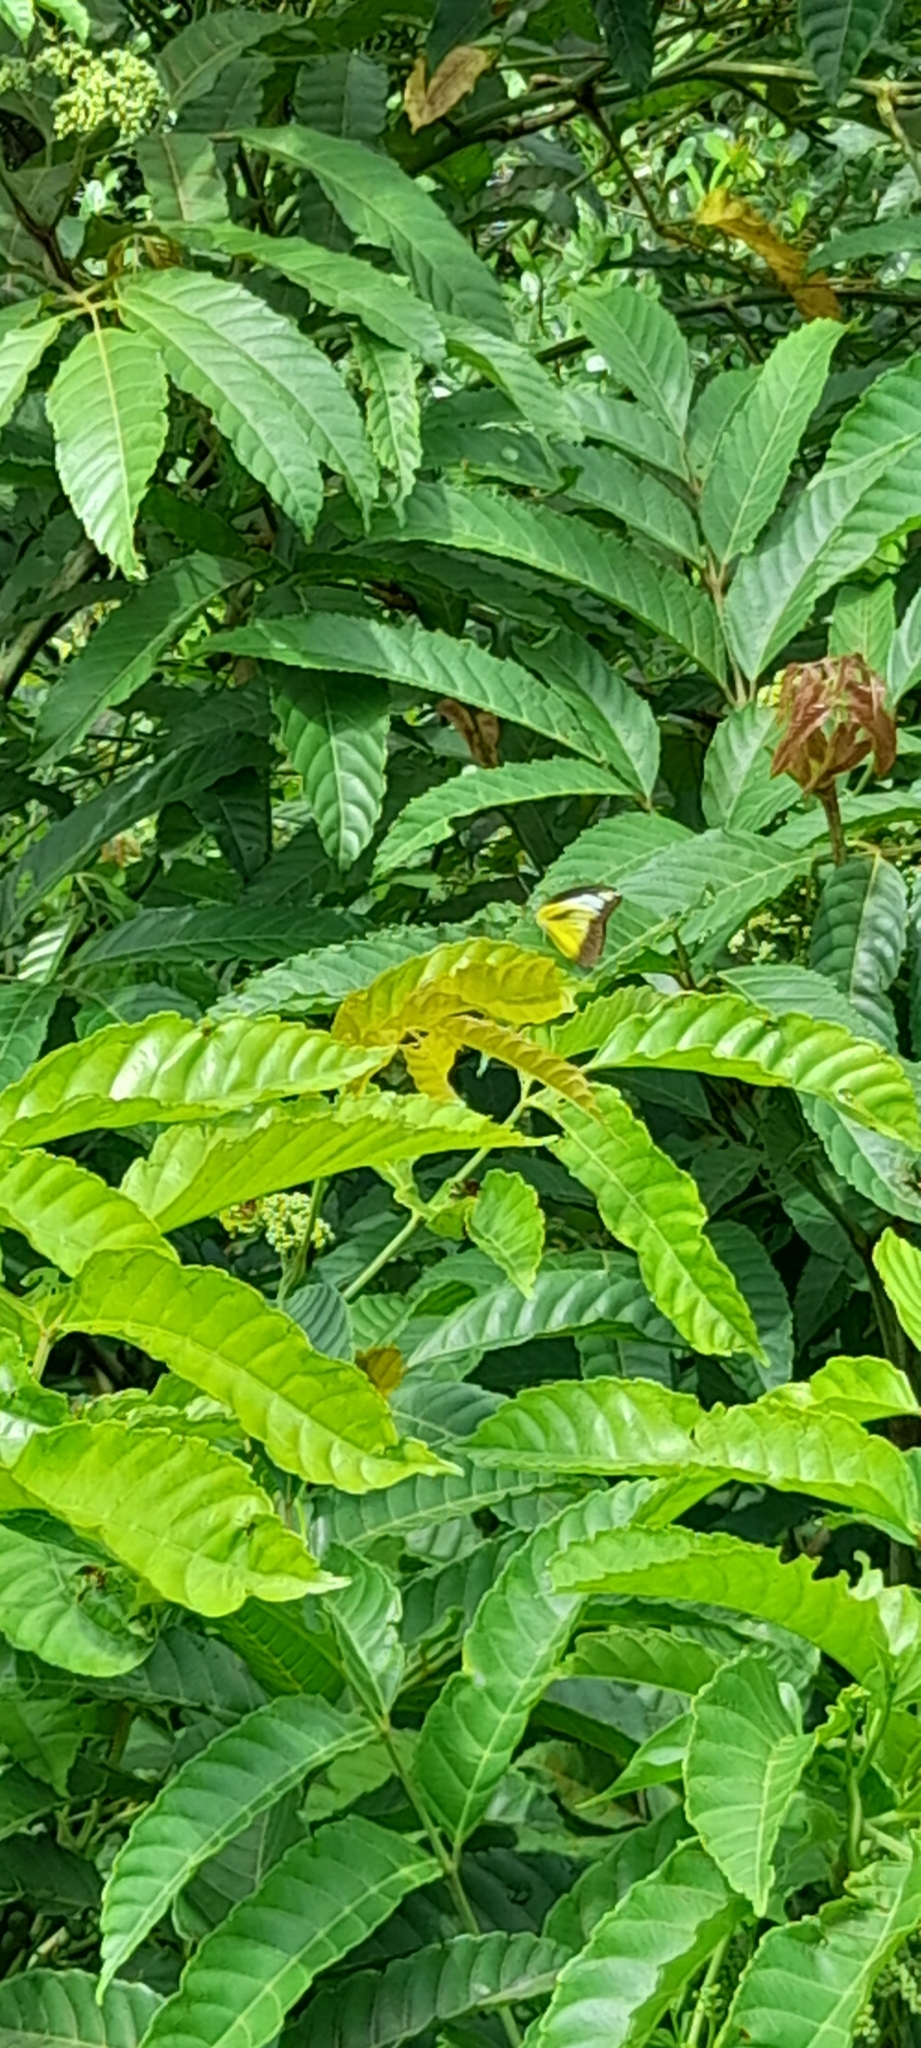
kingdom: Animalia
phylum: Arthropoda
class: Insecta
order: Lepidoptera
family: Pieridae
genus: Appias
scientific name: Appias lyncida
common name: Chocolate albatross
